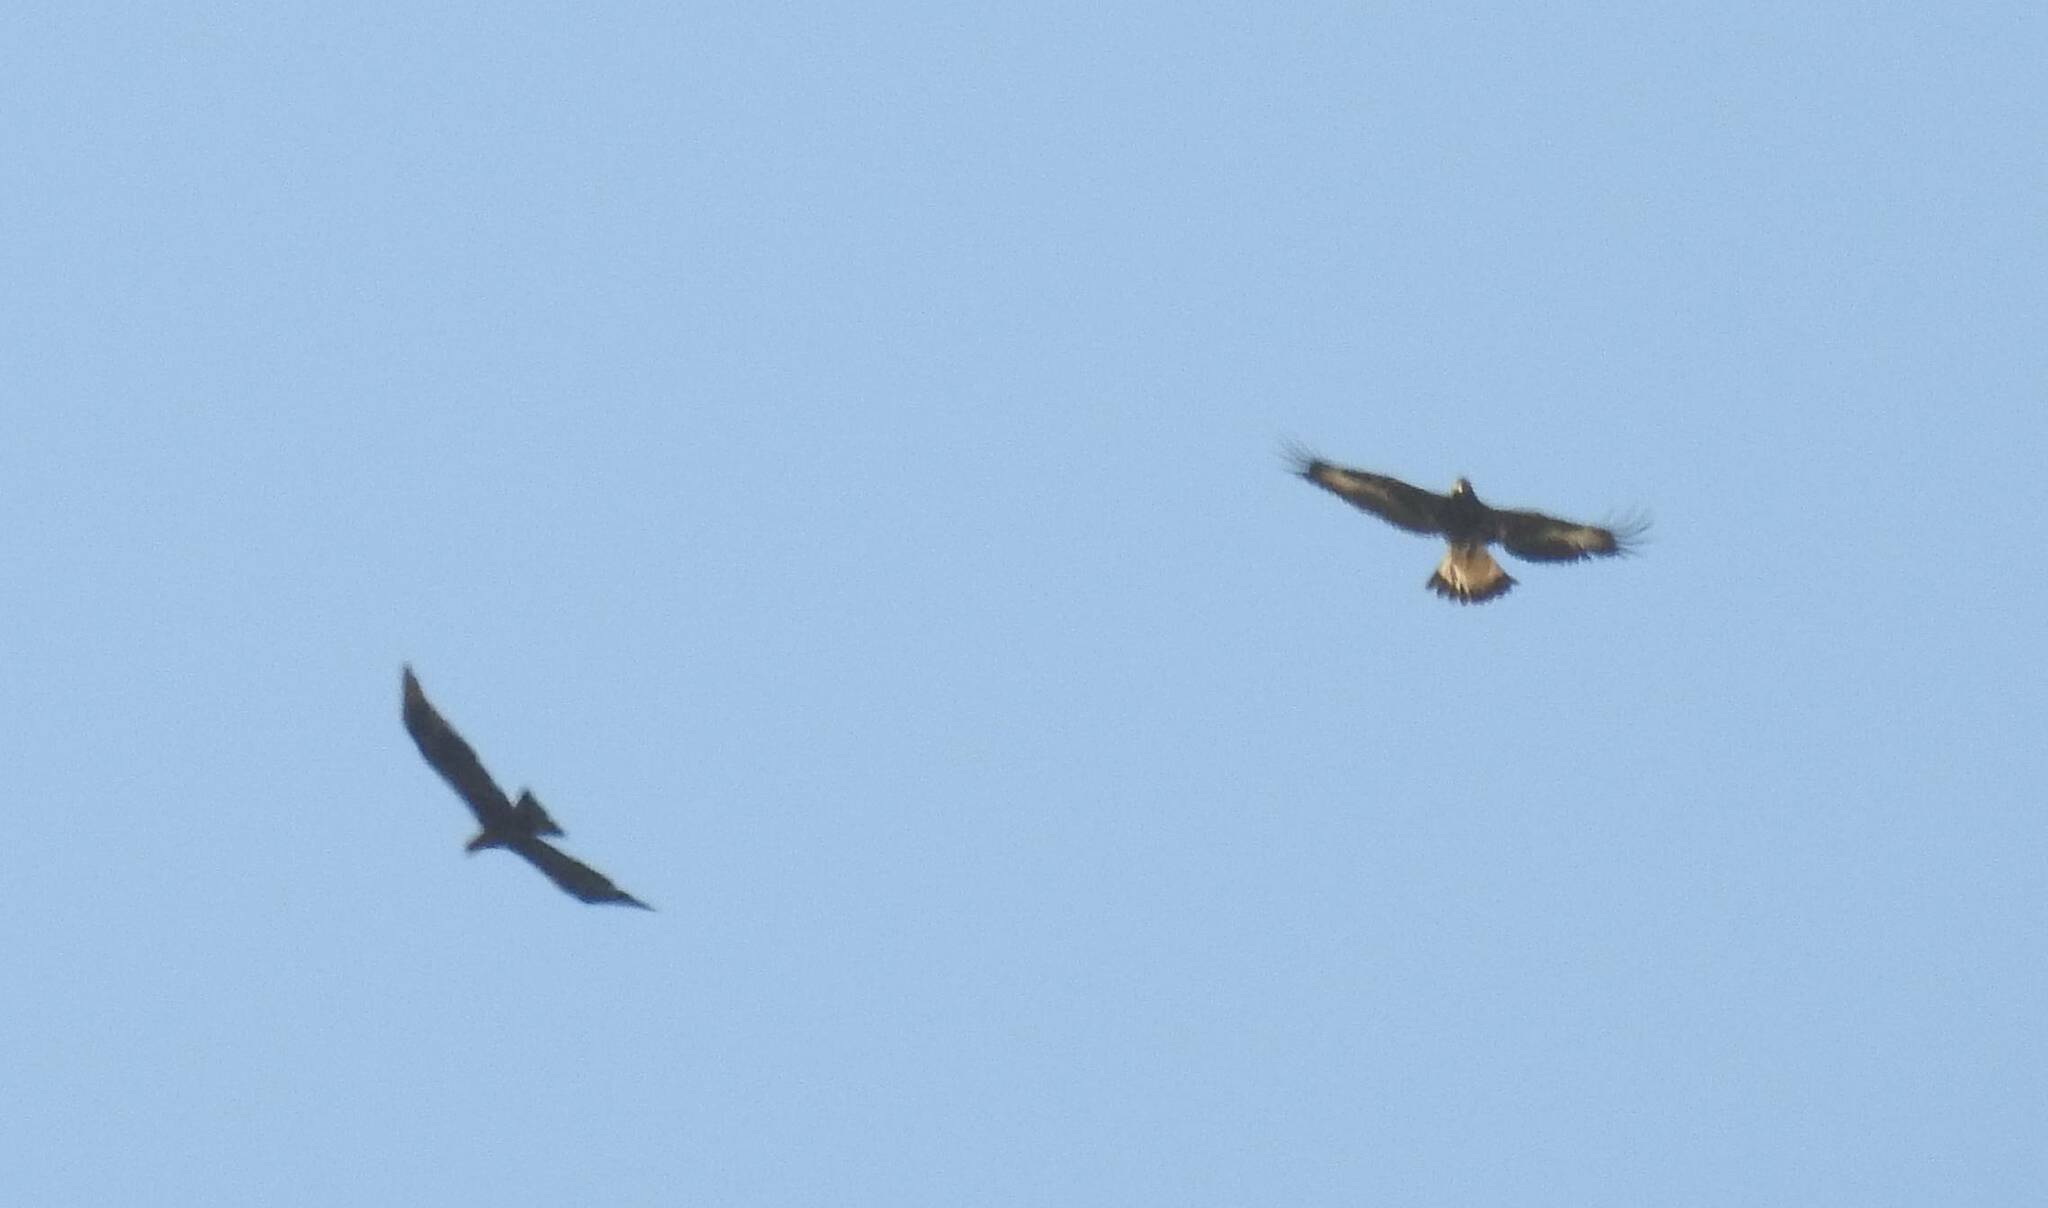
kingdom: Animalia
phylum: Chordata
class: Aves
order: Accipitriformes
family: Accipitridae
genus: Aquila
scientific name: Aquila chrysaetos
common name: Golden eagle
